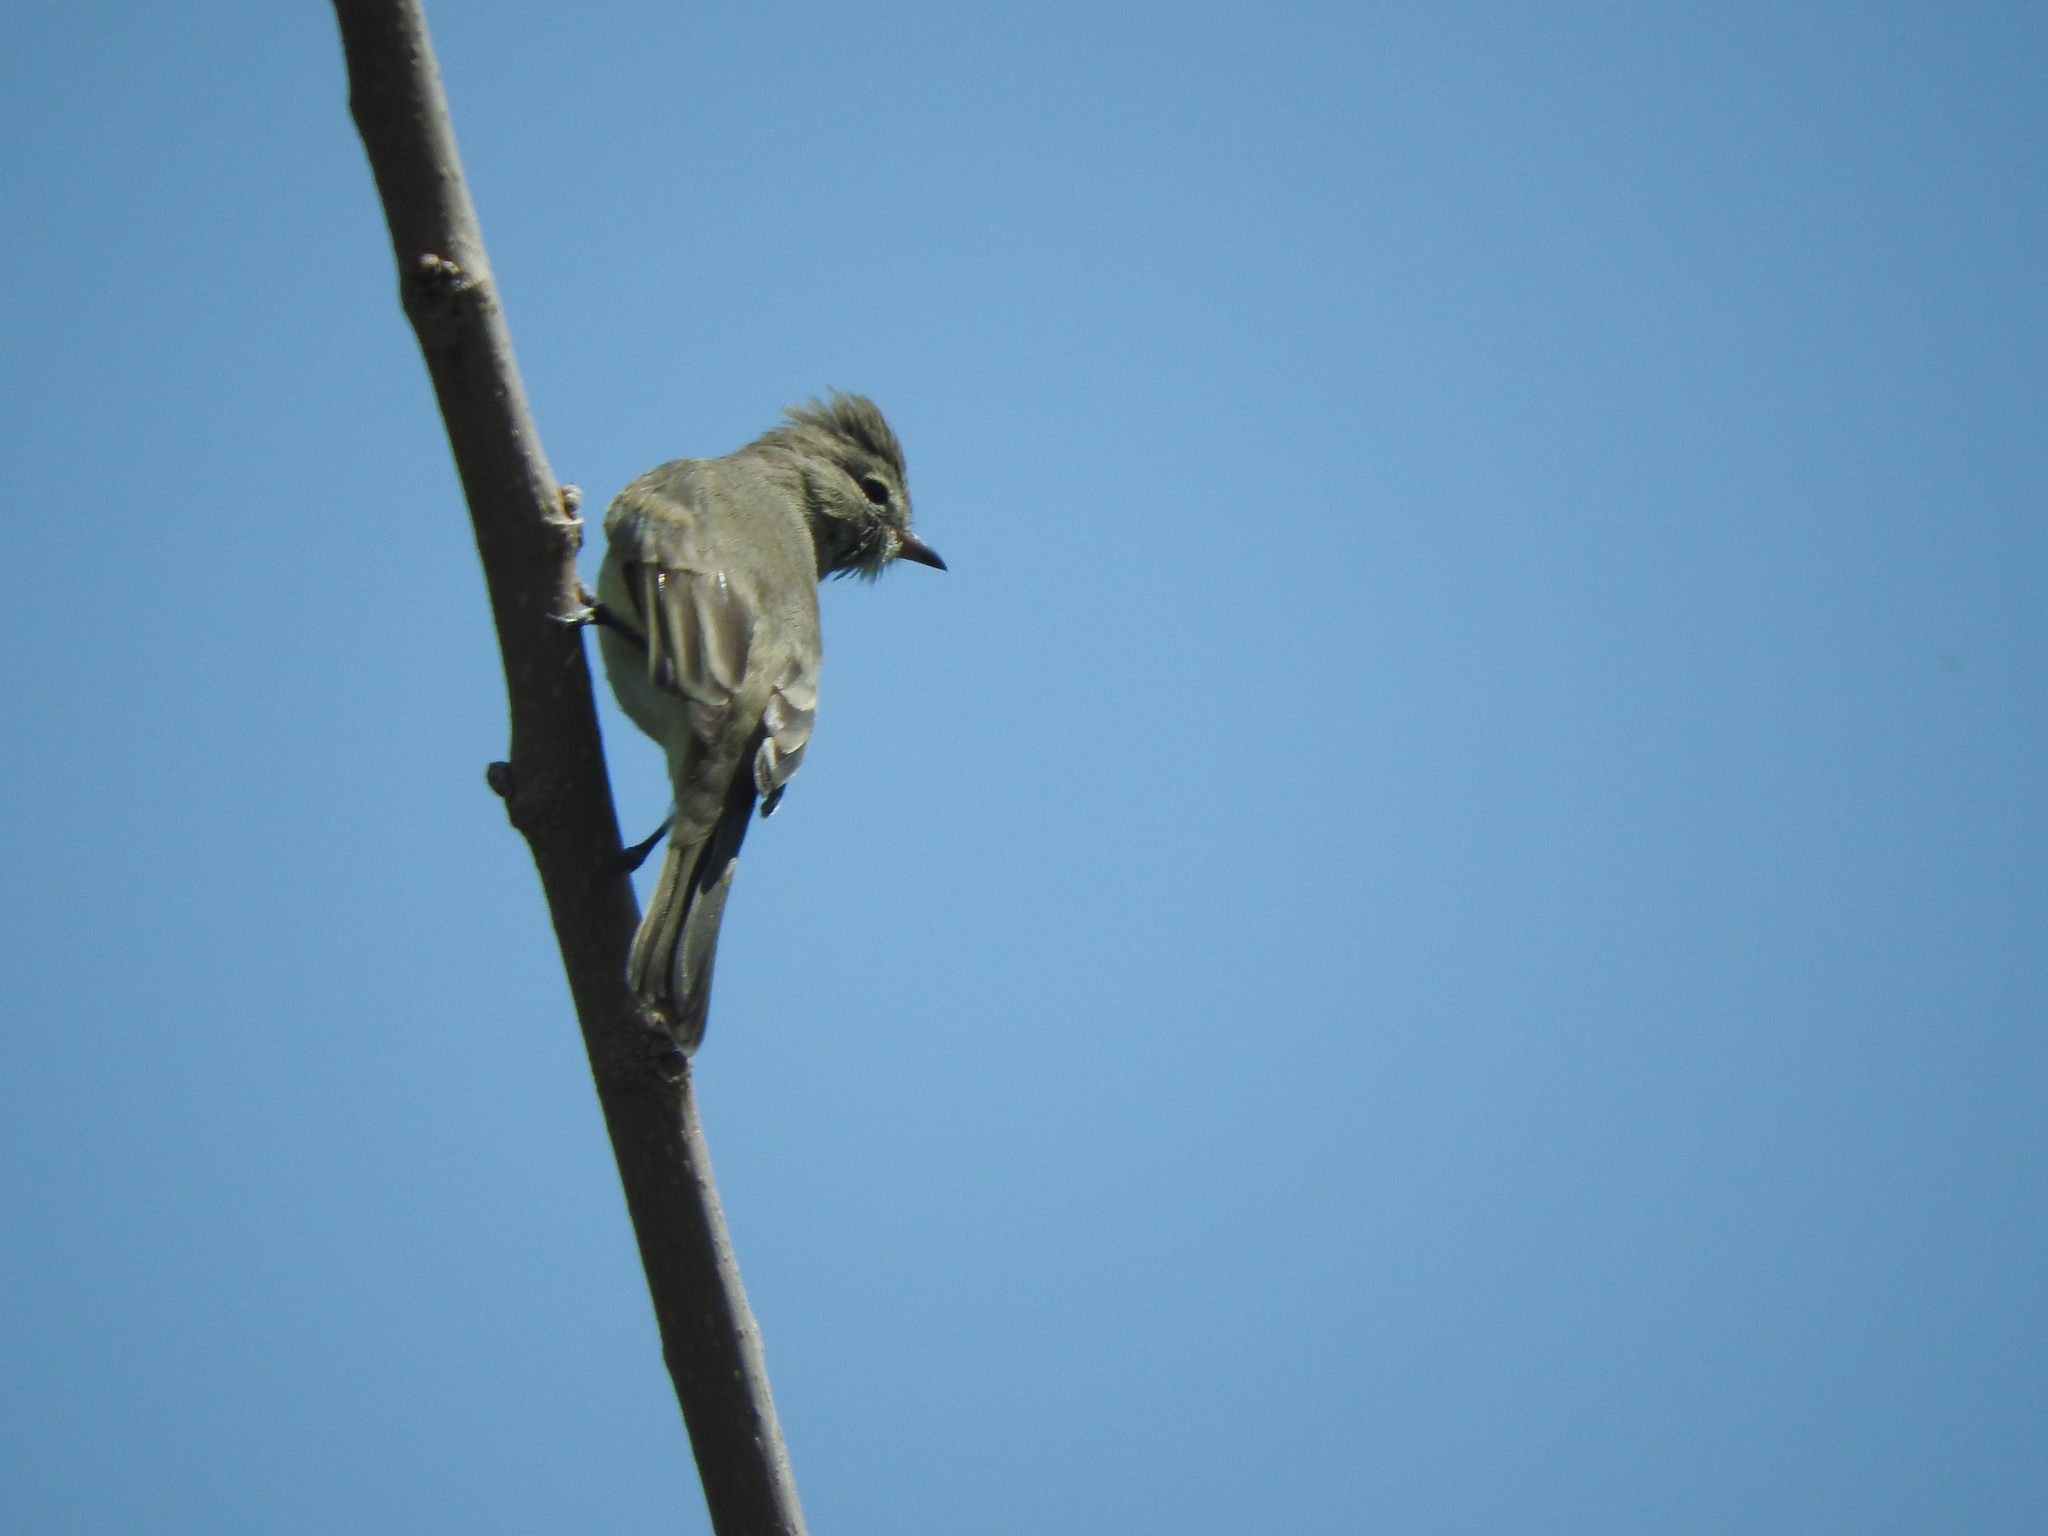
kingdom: Animalia
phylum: Chordata
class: Aves
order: Passeriformes
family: Tyrannidae
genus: Camptostoma
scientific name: Camptostoma imberbe
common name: Northern beardless-tyrannulet
